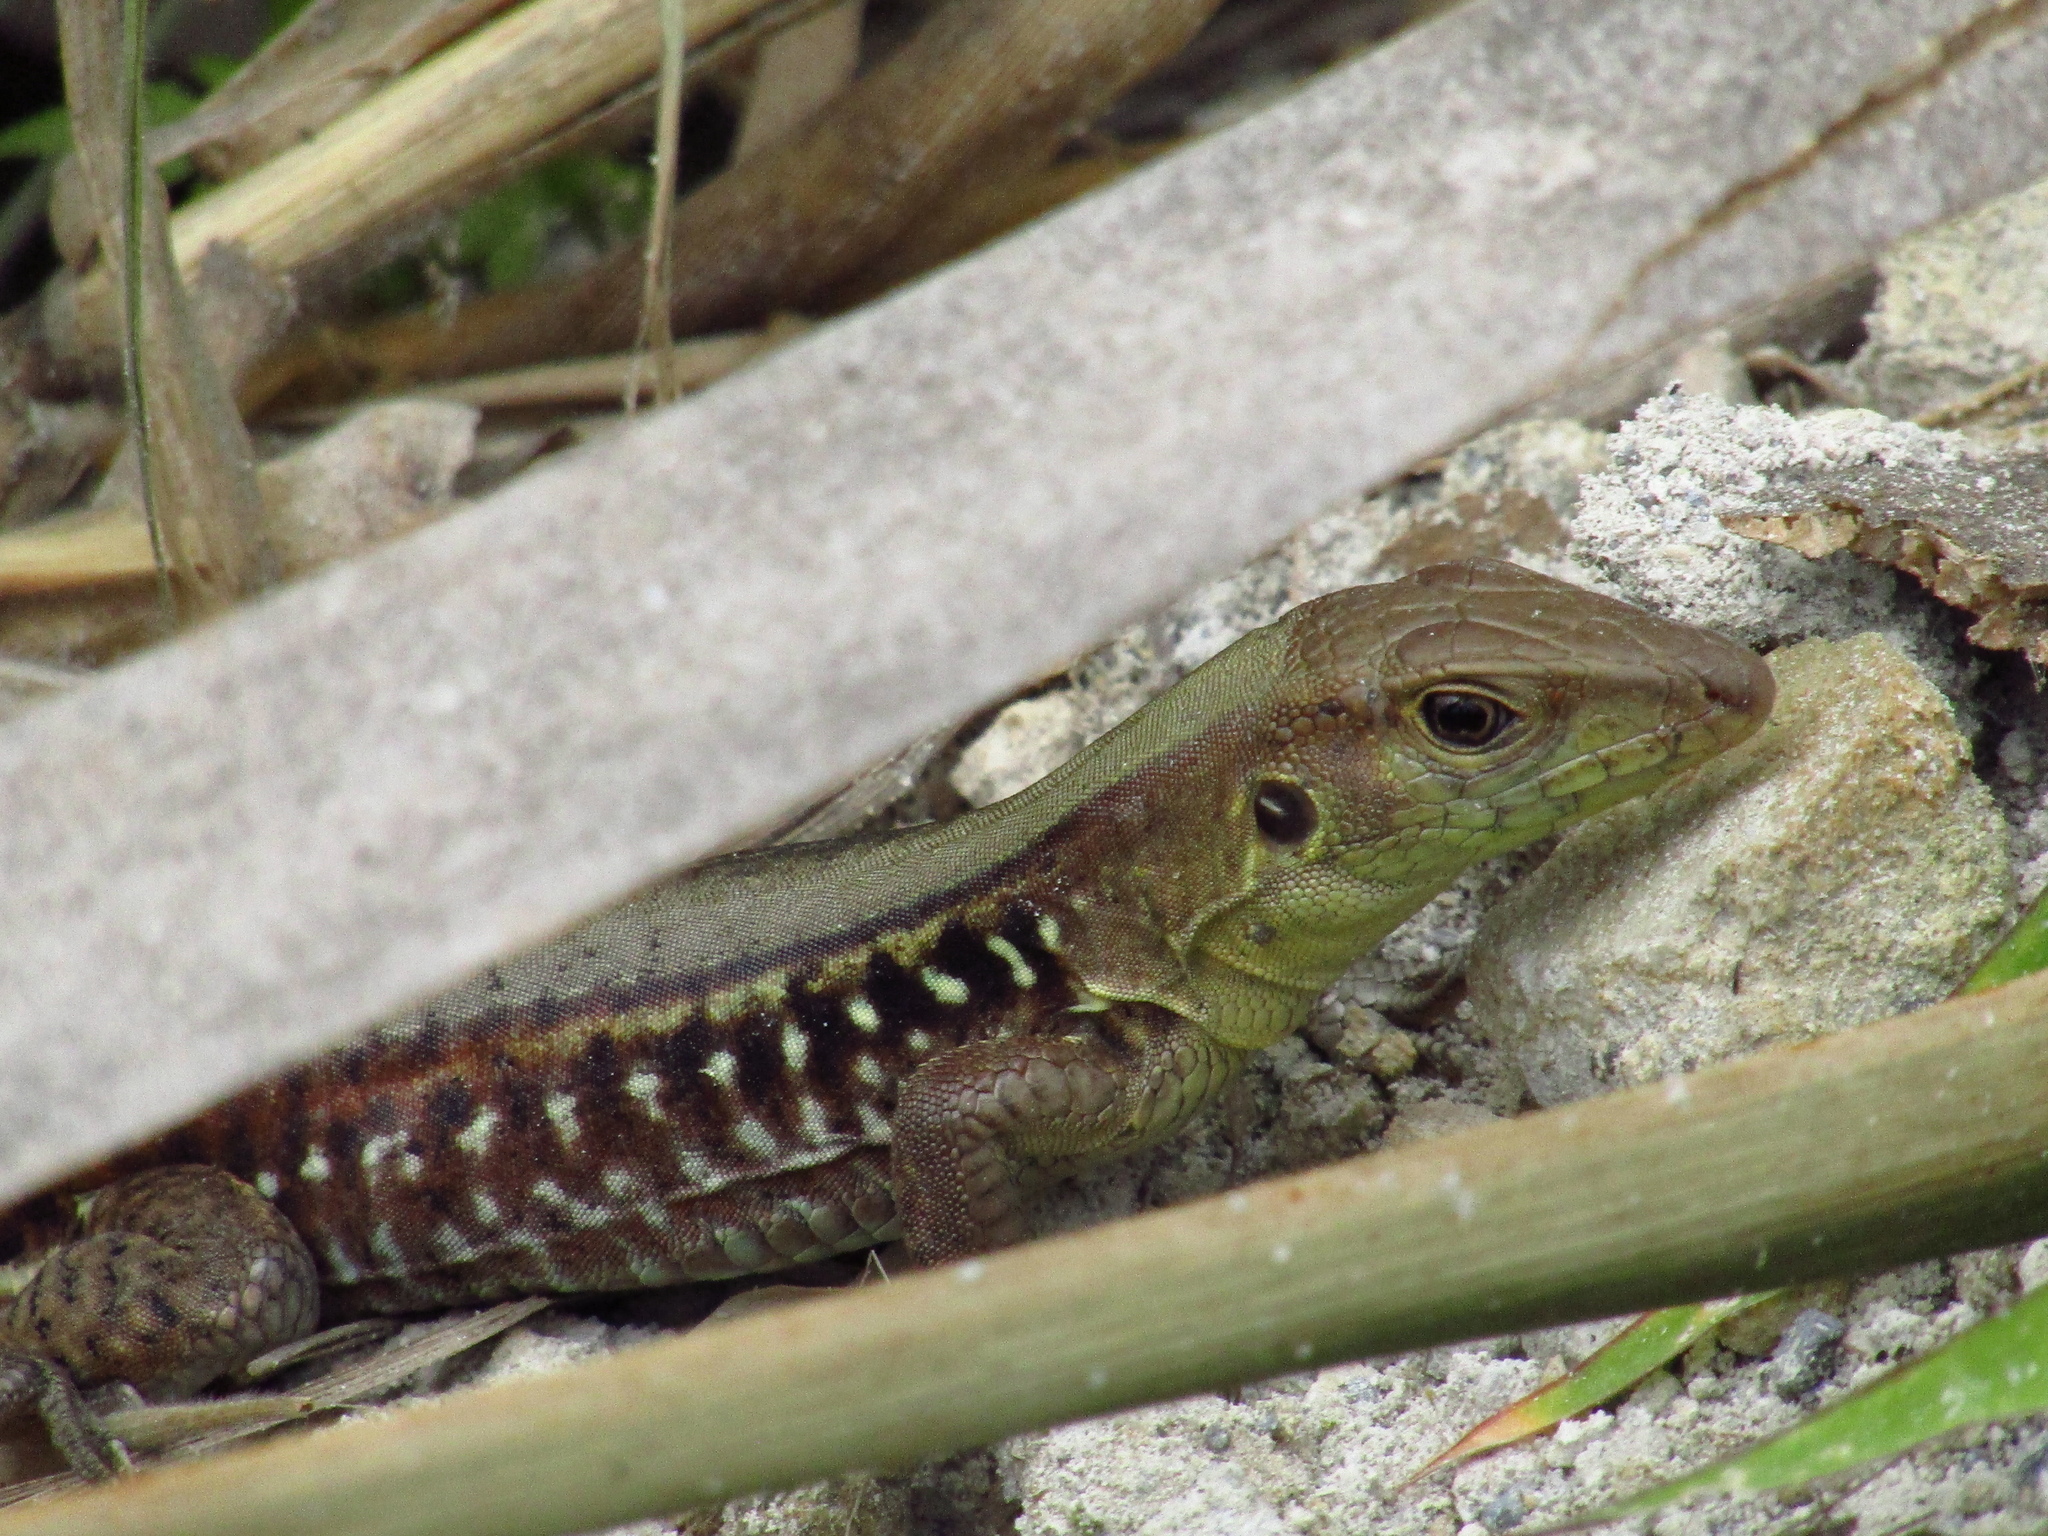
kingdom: Animalia
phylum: Chordata
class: Squamata
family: Teiidae
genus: Holcosus
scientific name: Holcosus undulatus
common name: Rainbow ameiva
